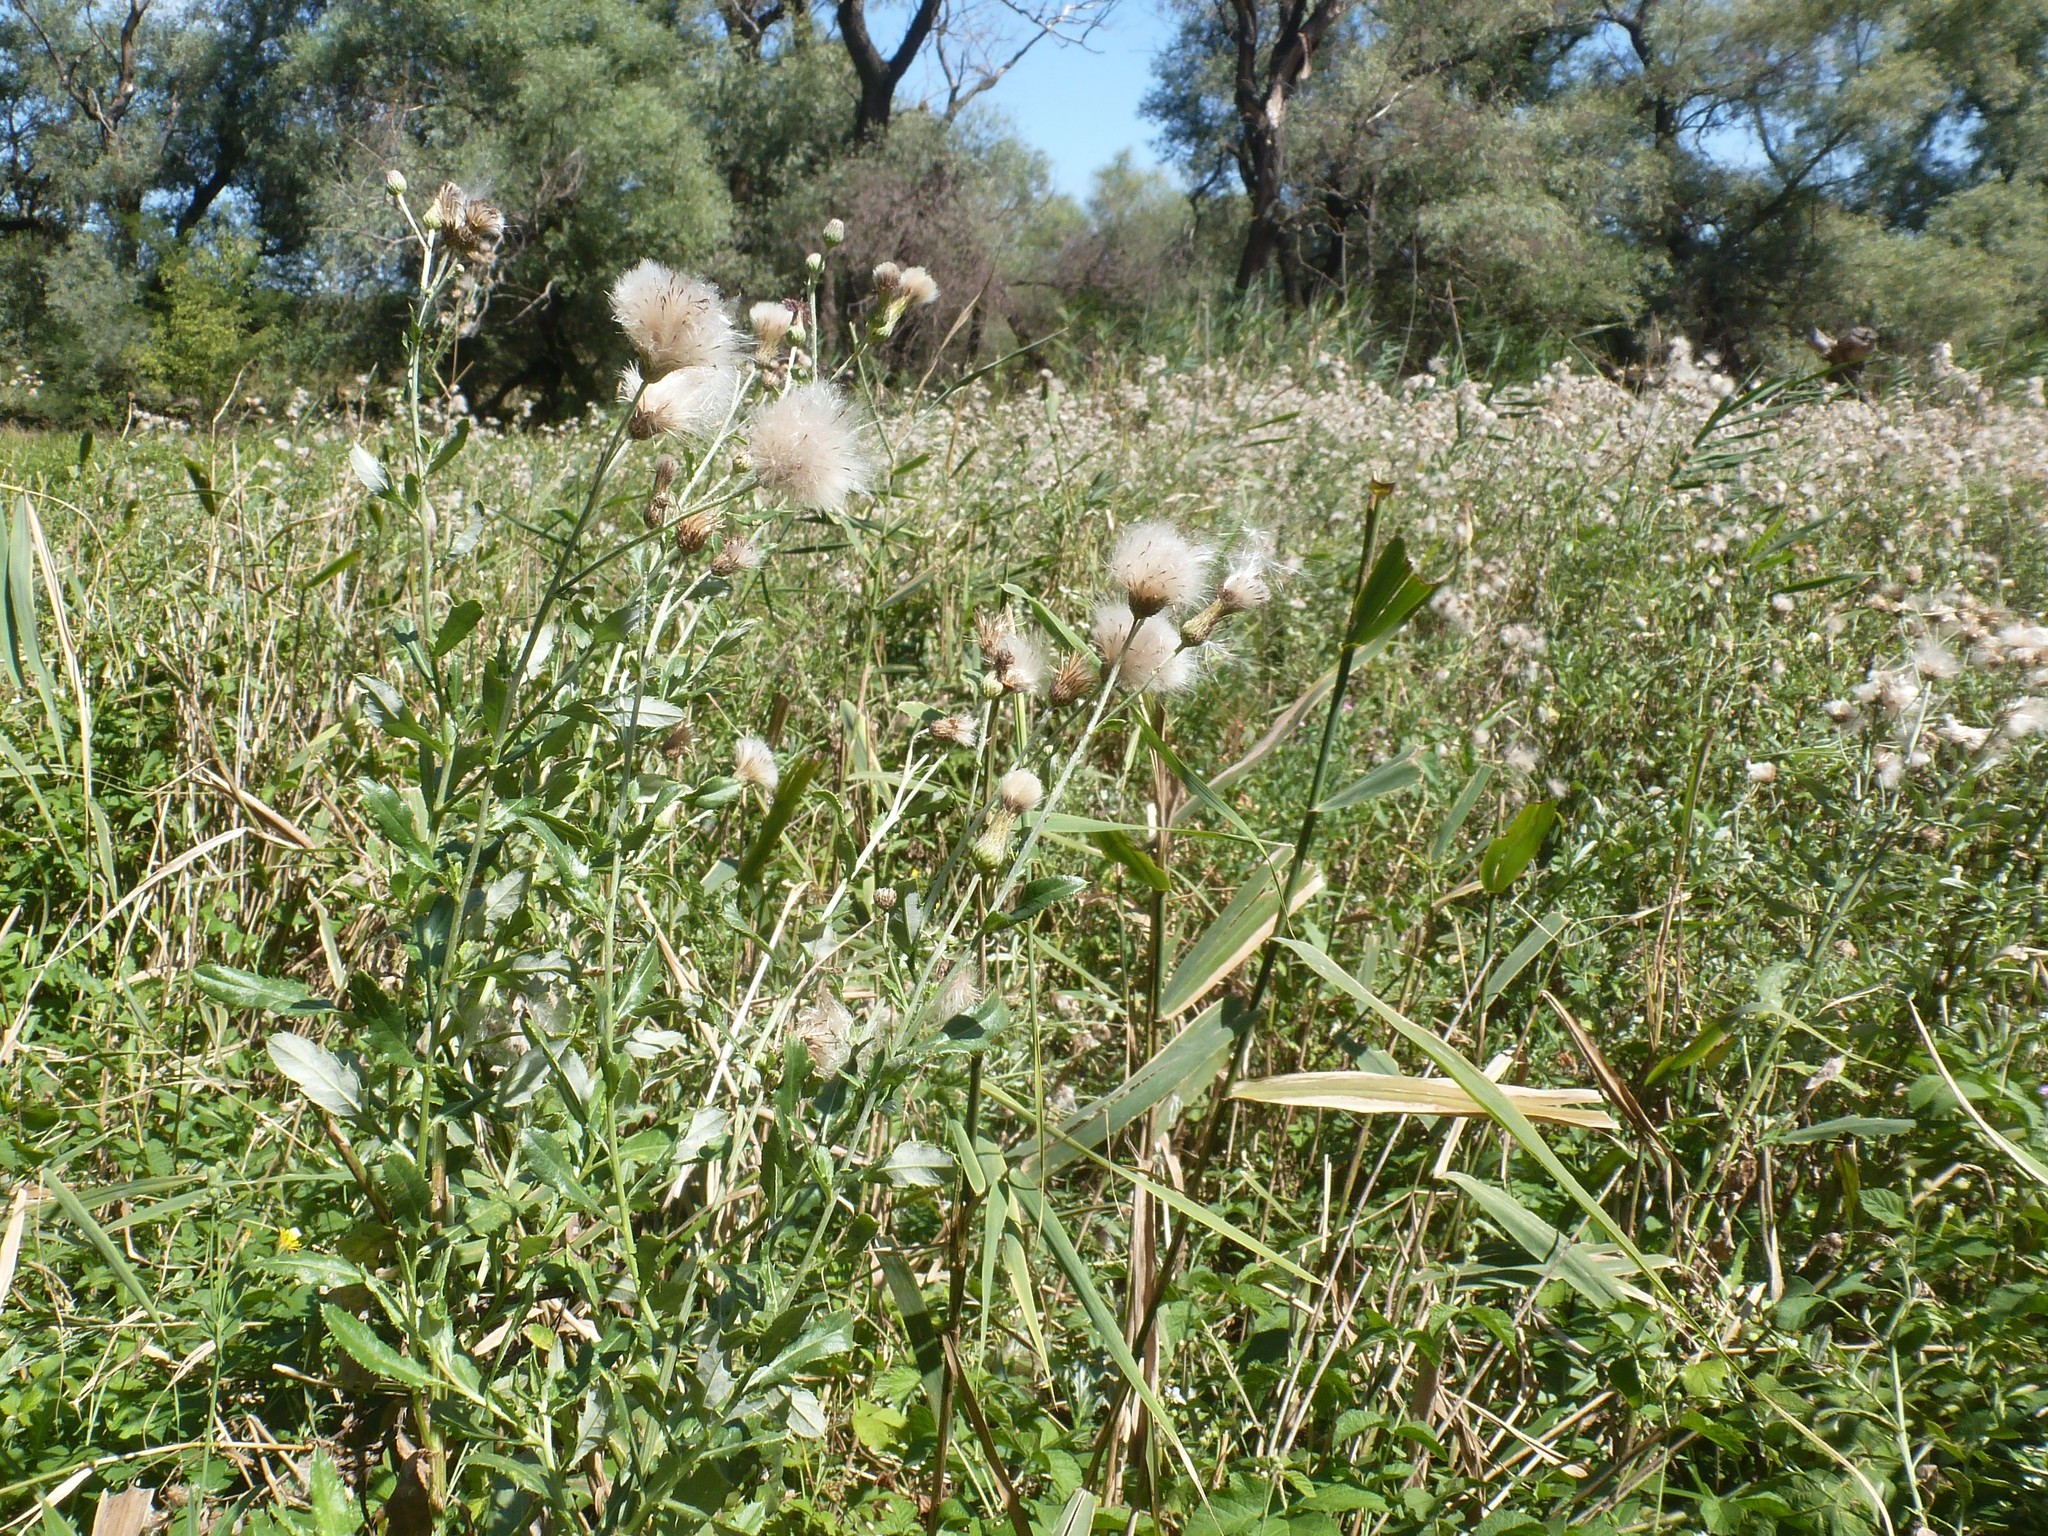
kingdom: Plantae
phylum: Tracheophyta
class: Magnoliopsida
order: Asterales
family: Asteraceae
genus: Cirsium
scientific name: Cirsium arvense
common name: Creeping thistle
